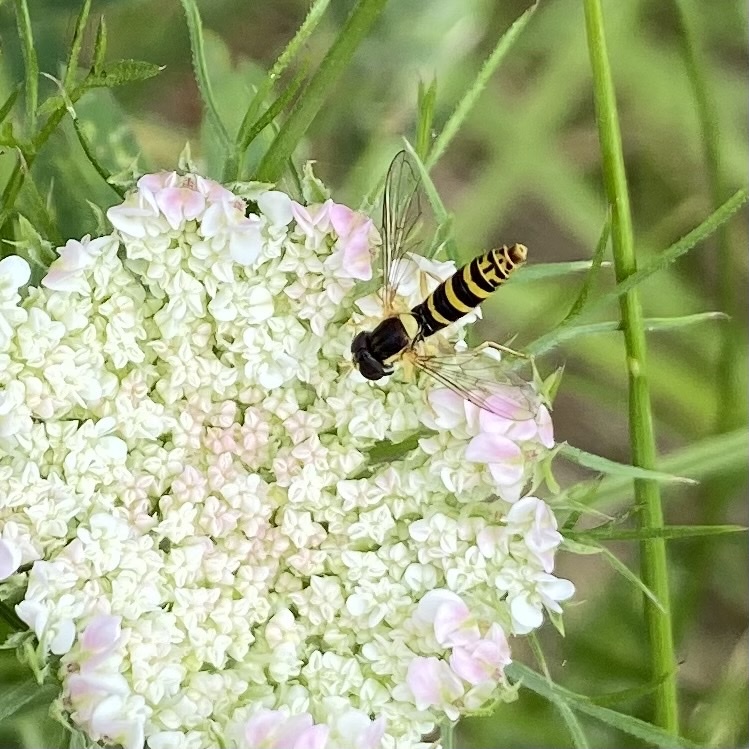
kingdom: Animalia
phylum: Arthropoda
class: Insecta
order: Diptera
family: Syrphidae
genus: Sphaerophoria
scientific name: Sphaerophoria
